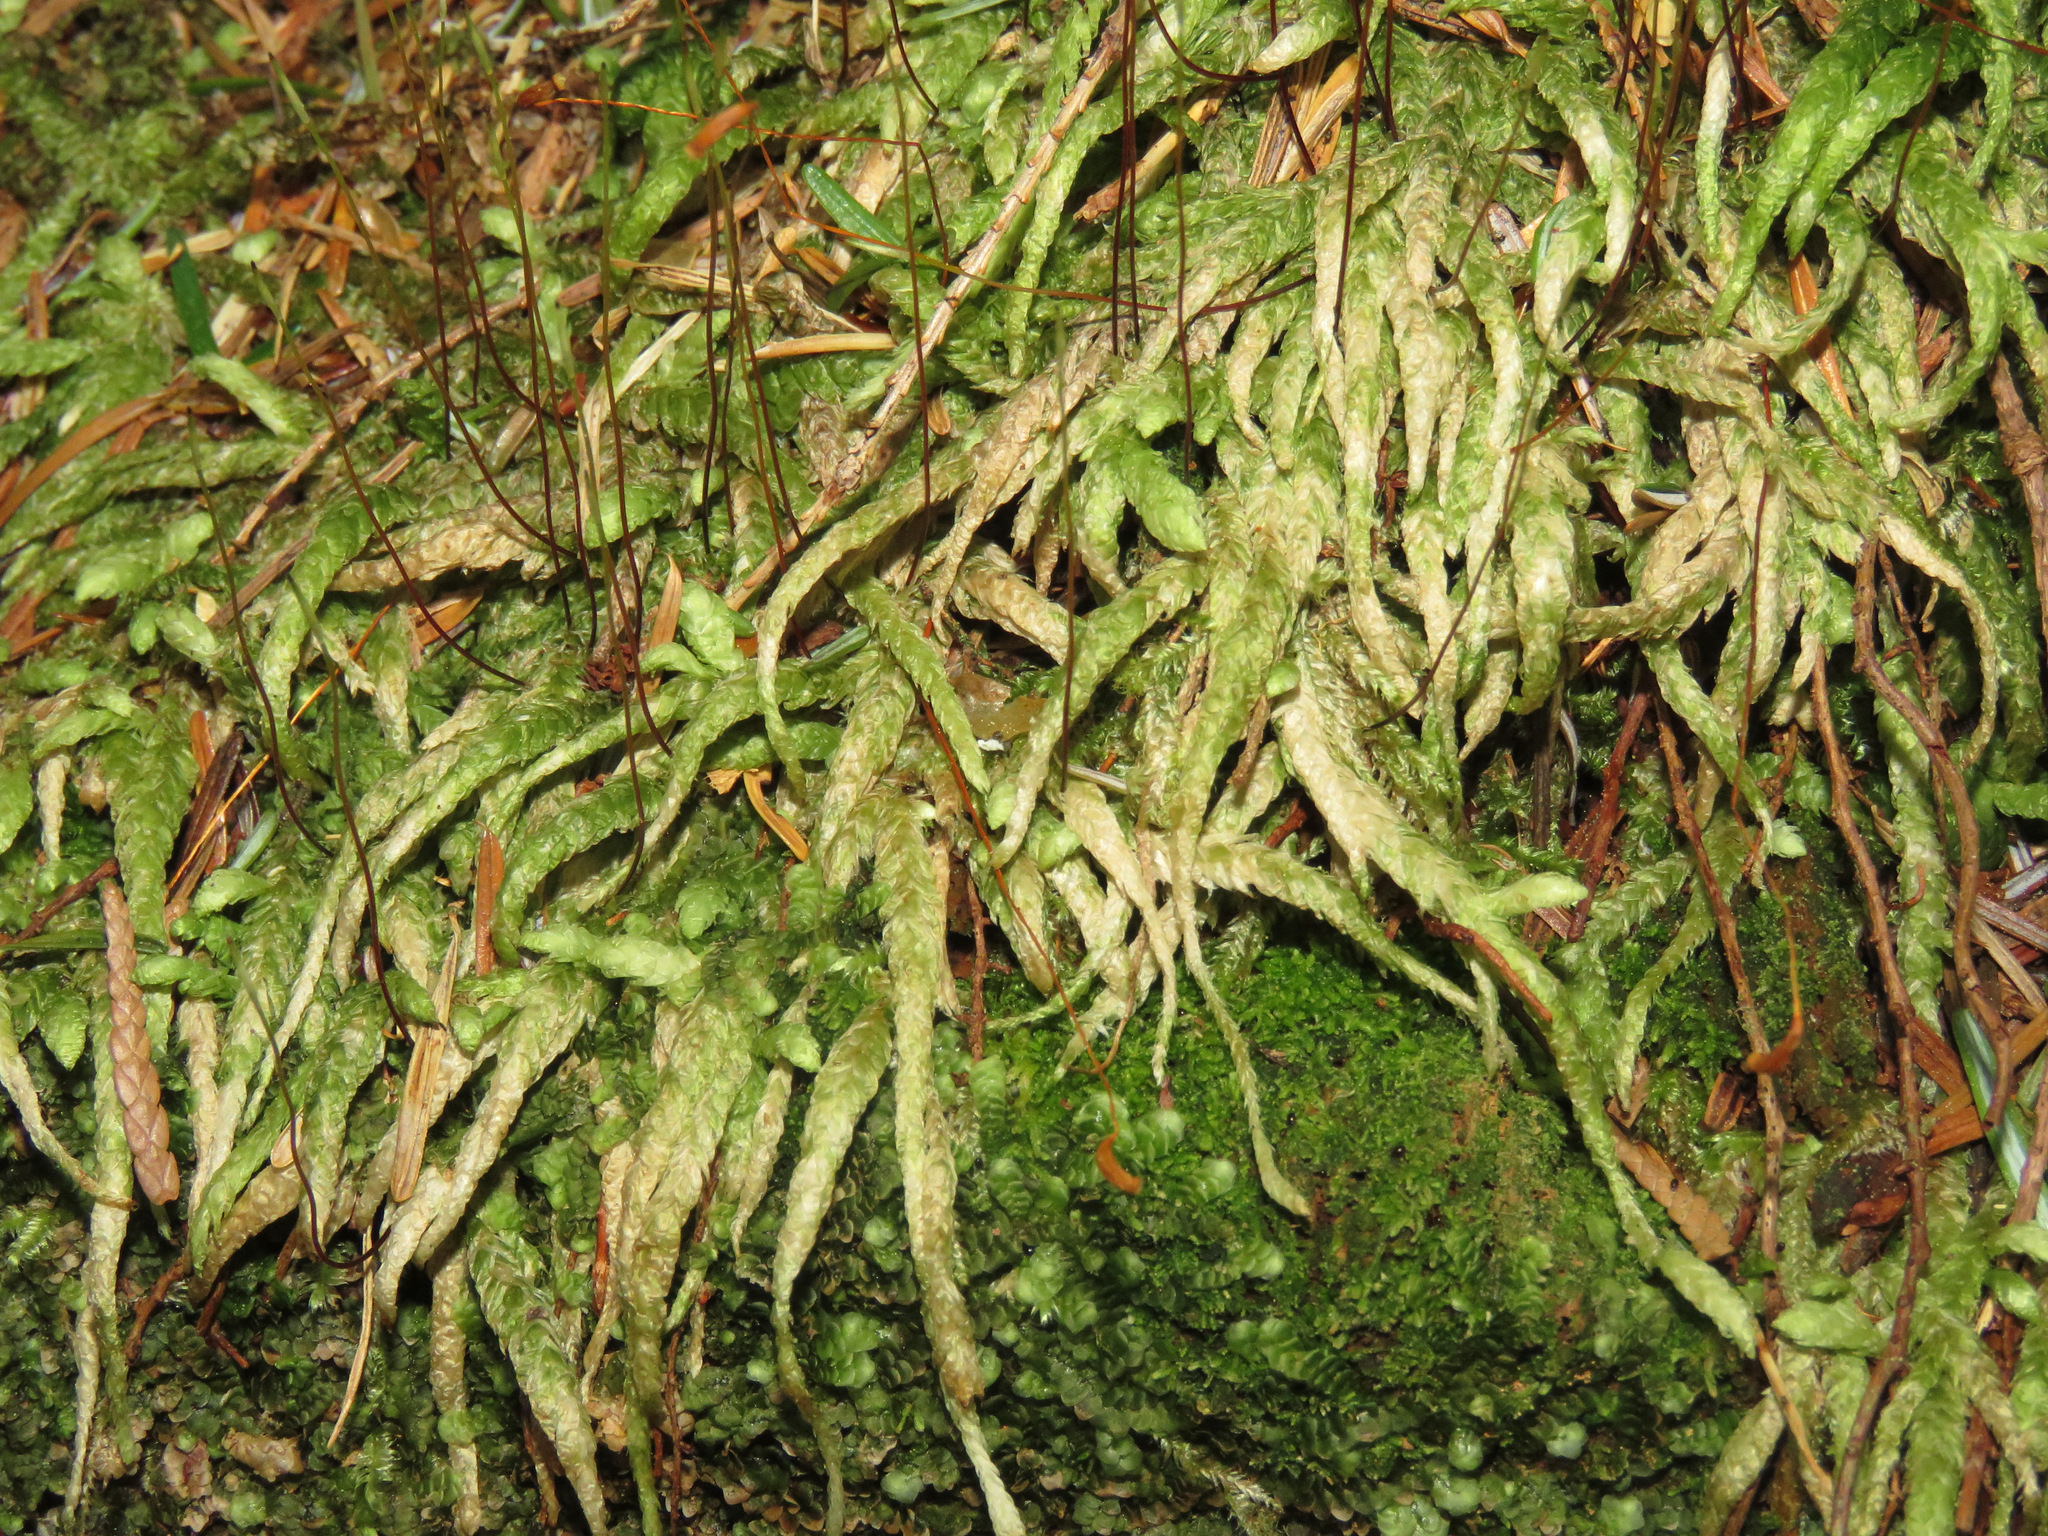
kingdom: Plantae
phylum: Bryophyta
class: Bryopsida
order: Hypnales
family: Plagiotheciaceae
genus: Plagiothecium
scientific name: Plagiothecium undulatum
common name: Waved silk-moss
